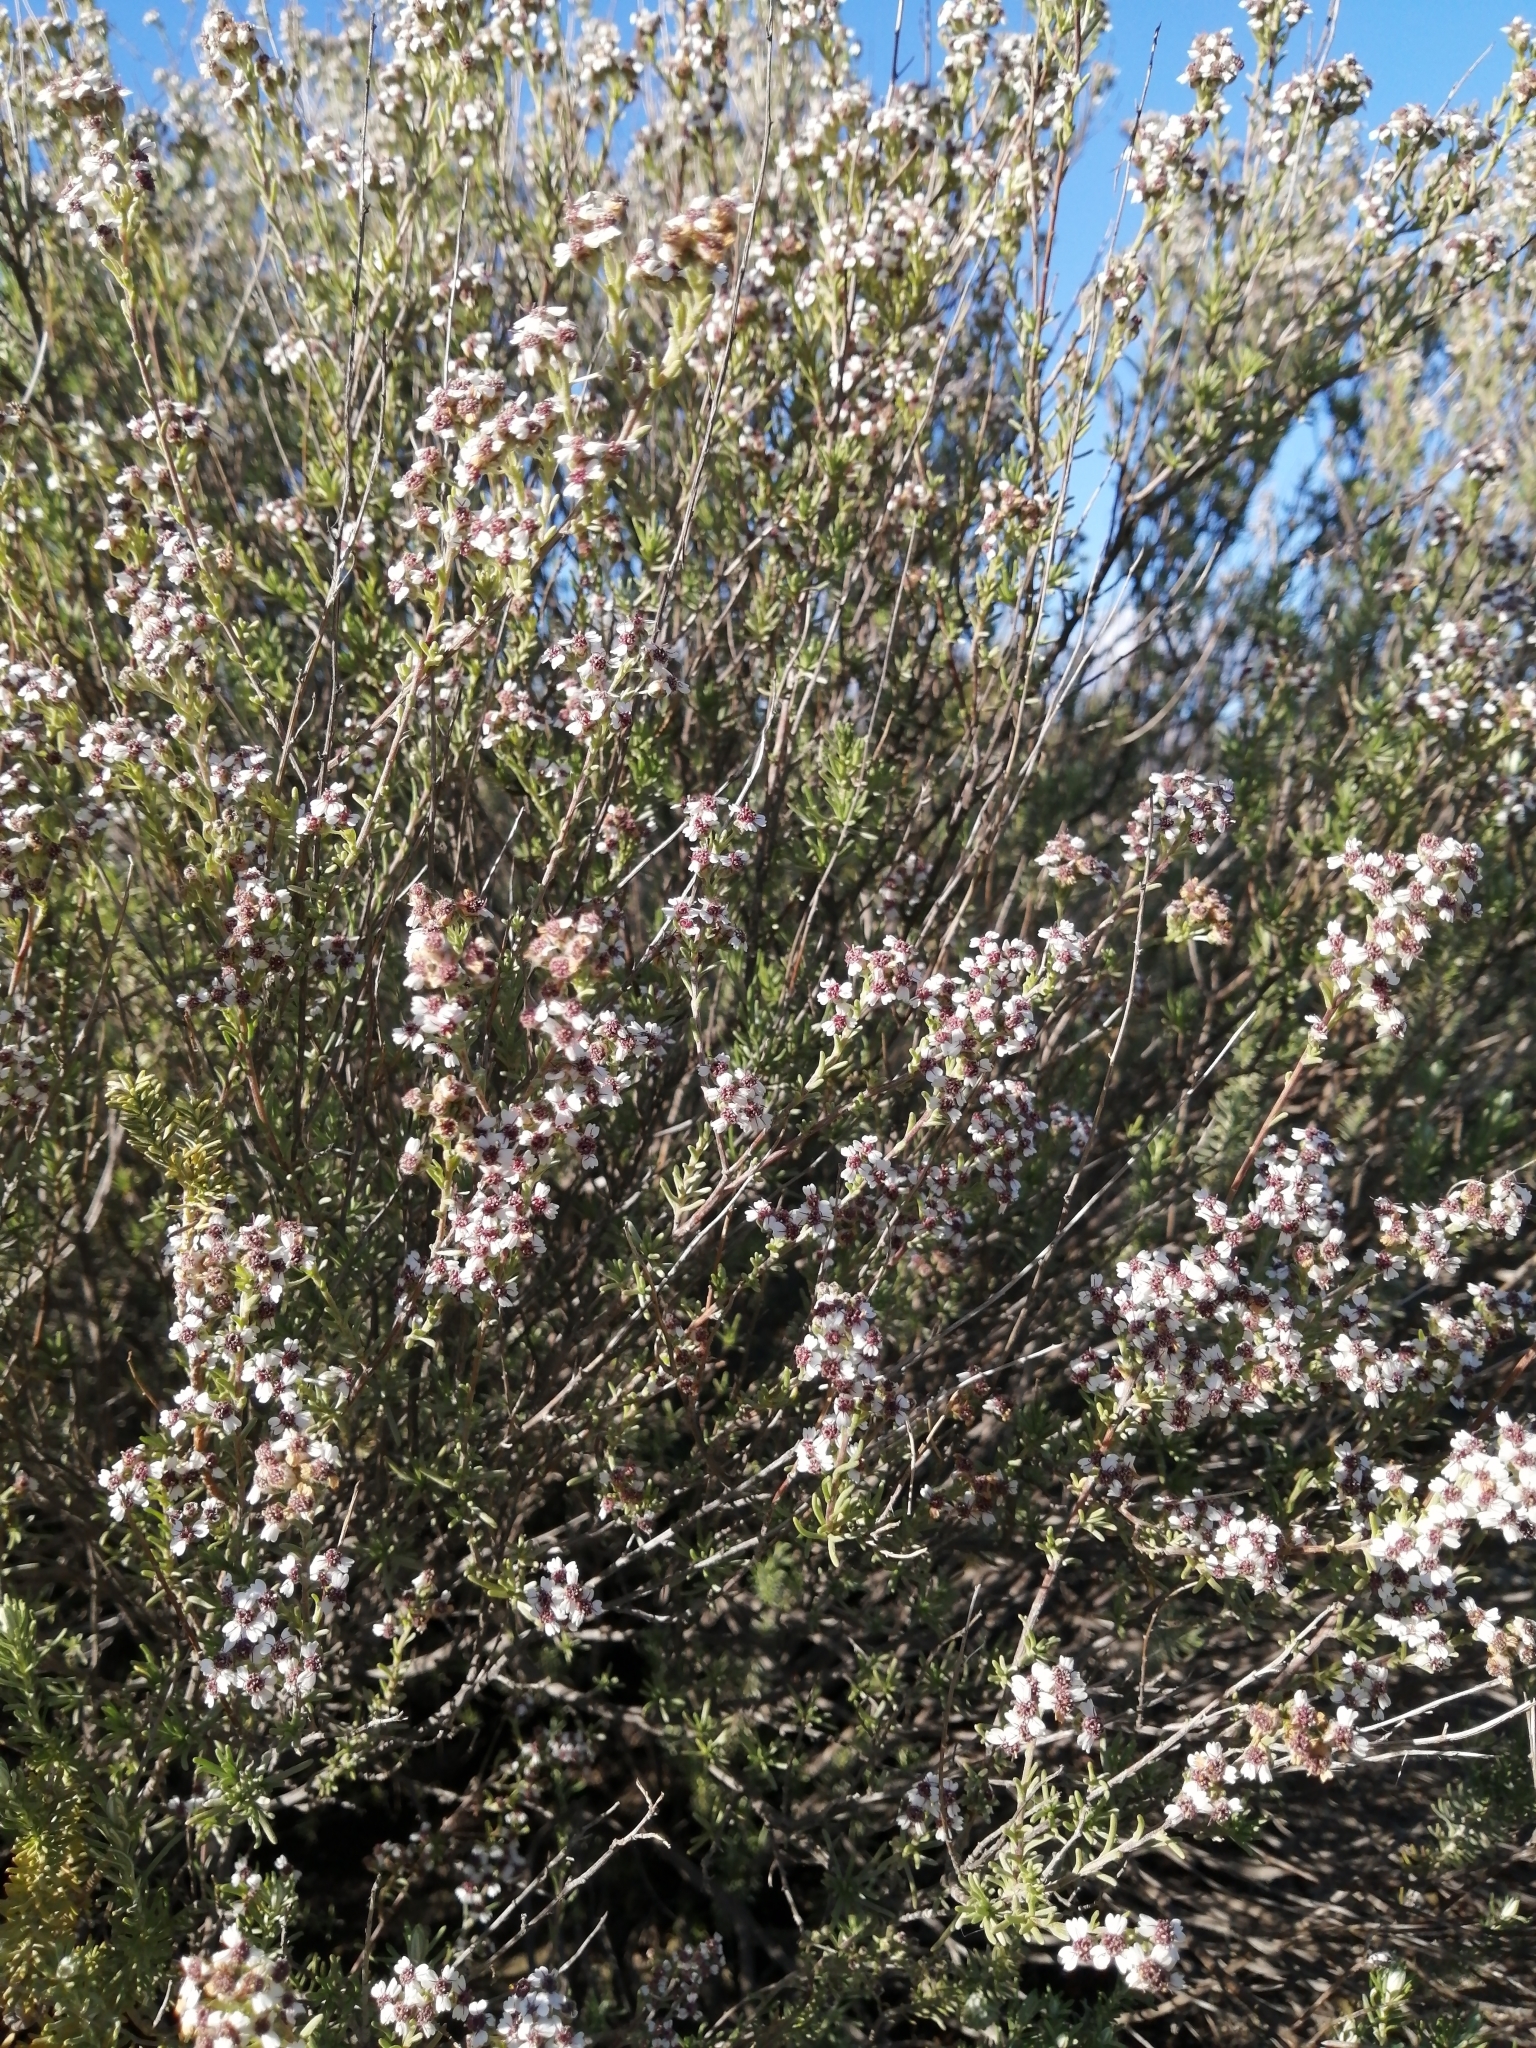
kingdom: Plantae
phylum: Tracheophyta
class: Magnoliopsida
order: Asterales
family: Asteraceae
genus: Eriocephalus
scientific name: Eriocephalus africanus
